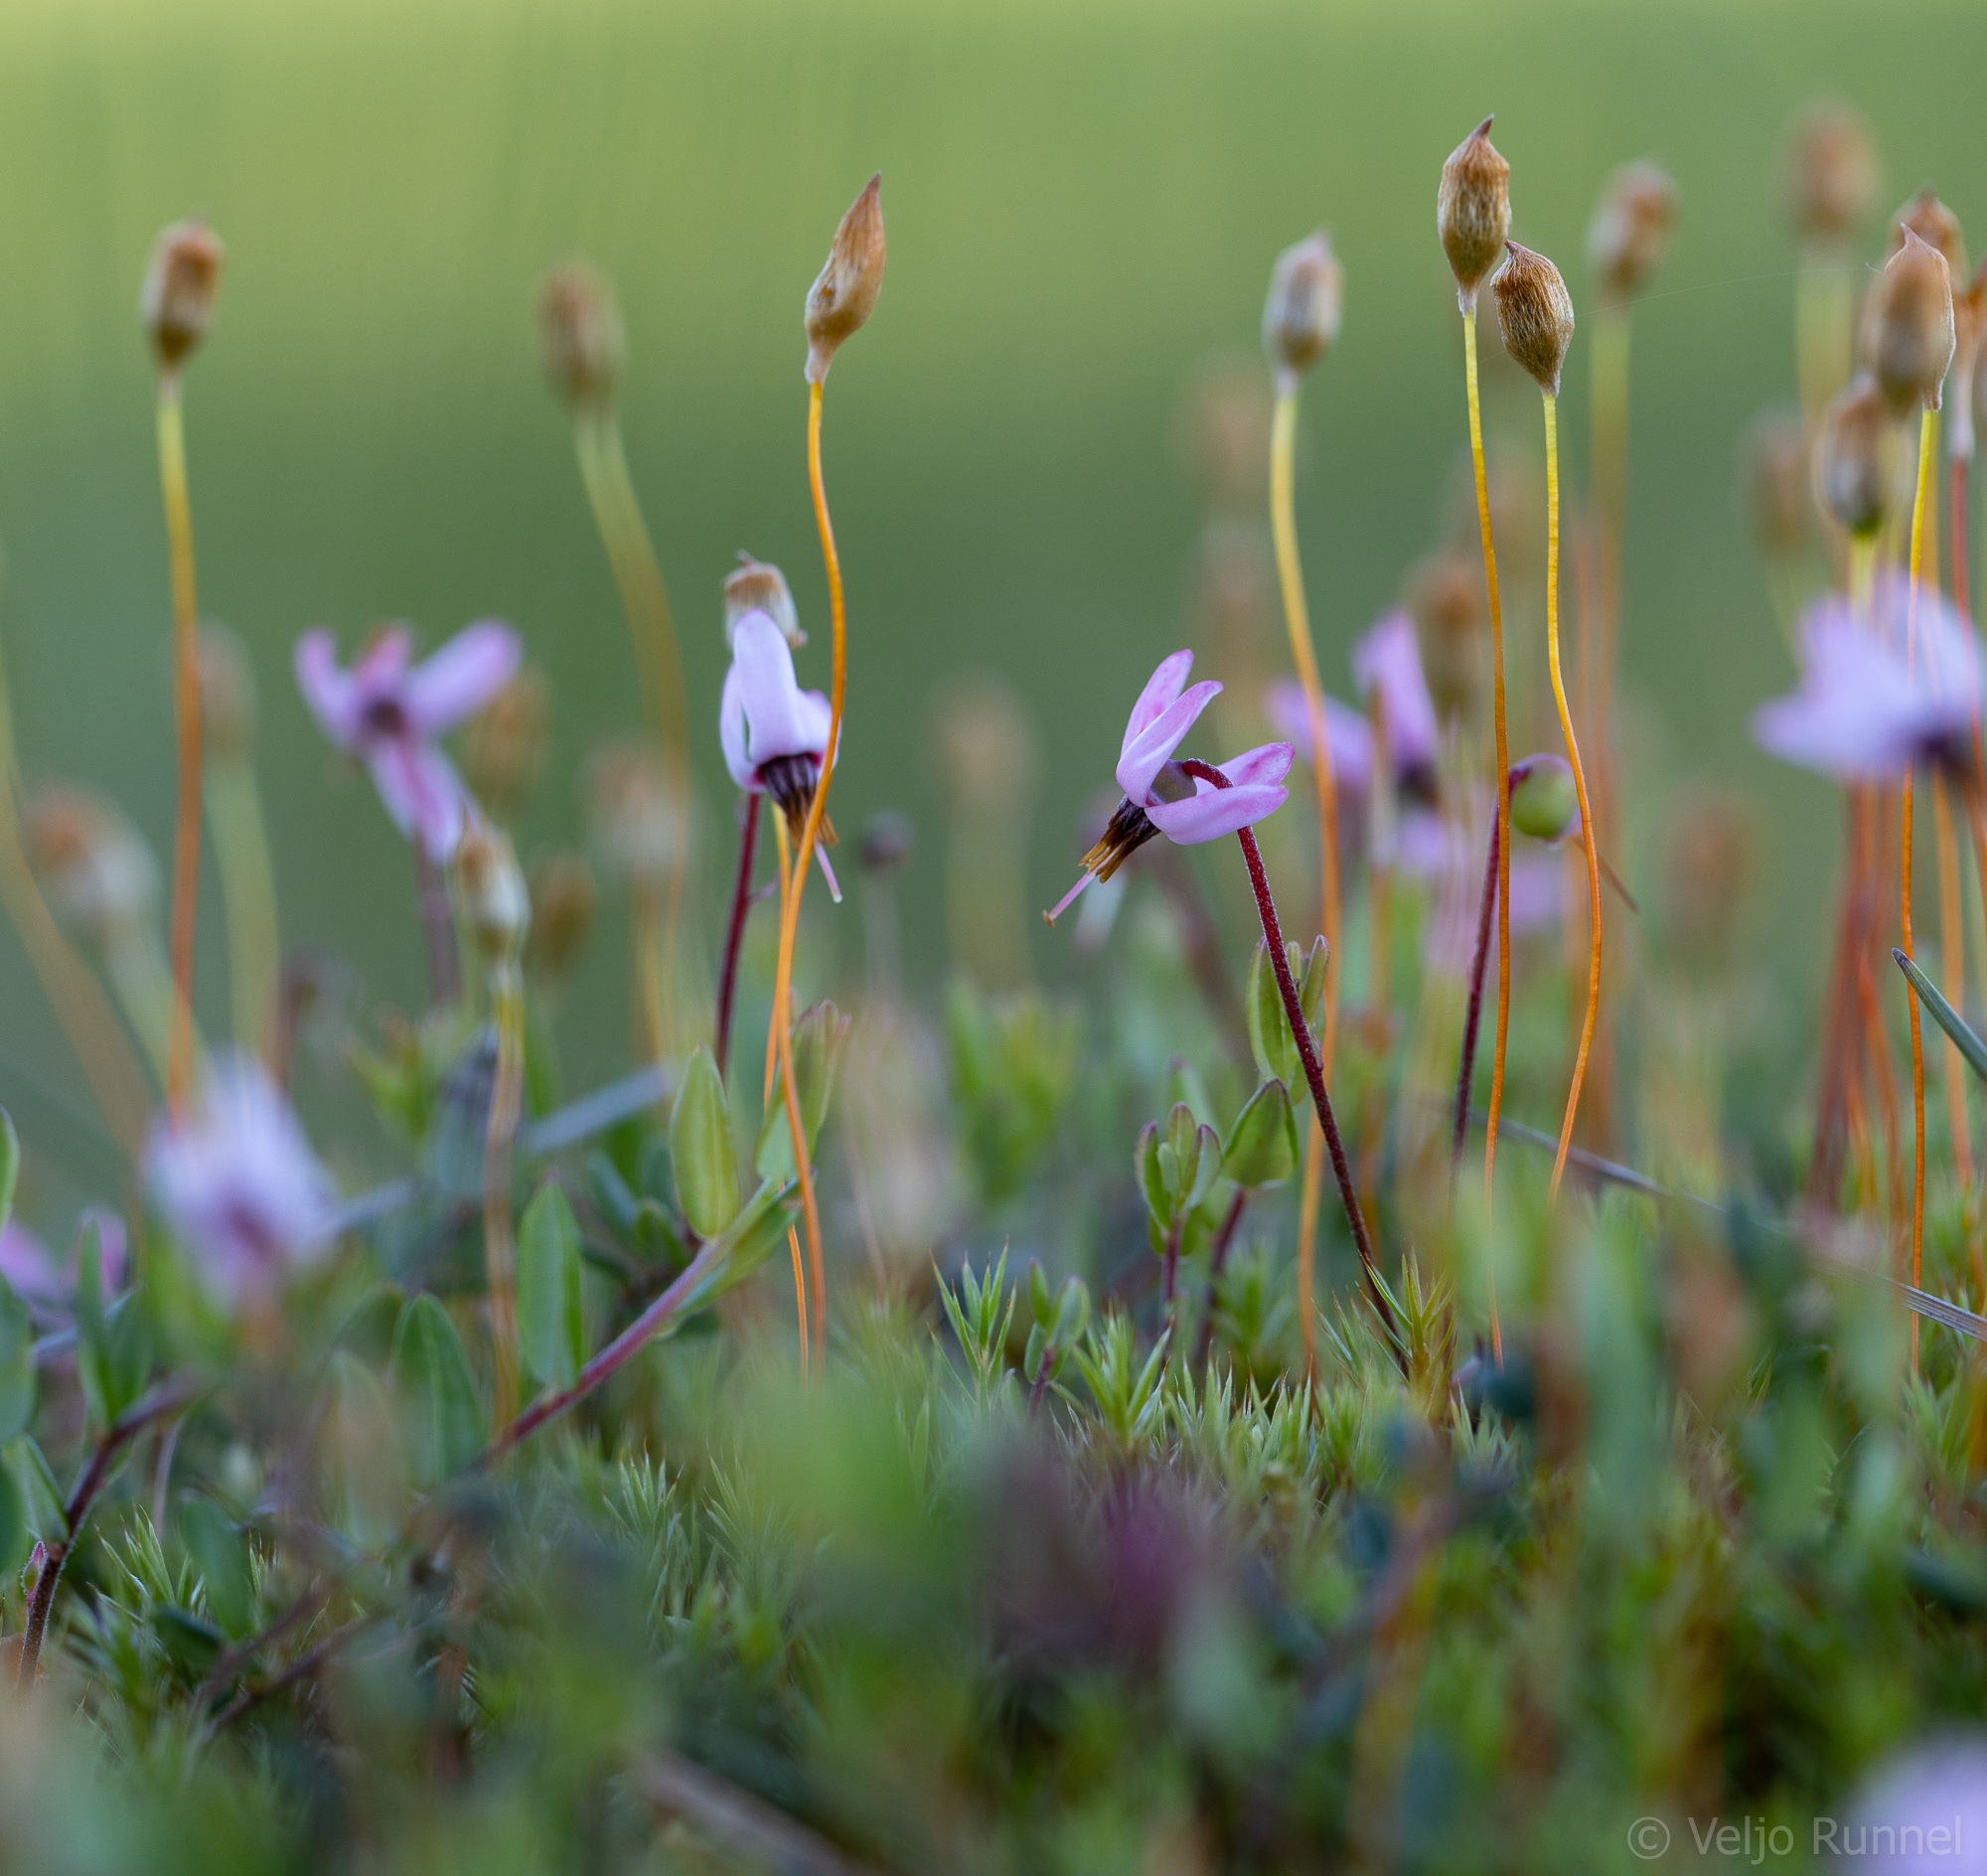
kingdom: Plantae
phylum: Tracheophyta
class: Magnoliopsida
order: Ericales
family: Ericaceae
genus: Vaccinium
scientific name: Vaccinium oxycoccos
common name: Cranberry
